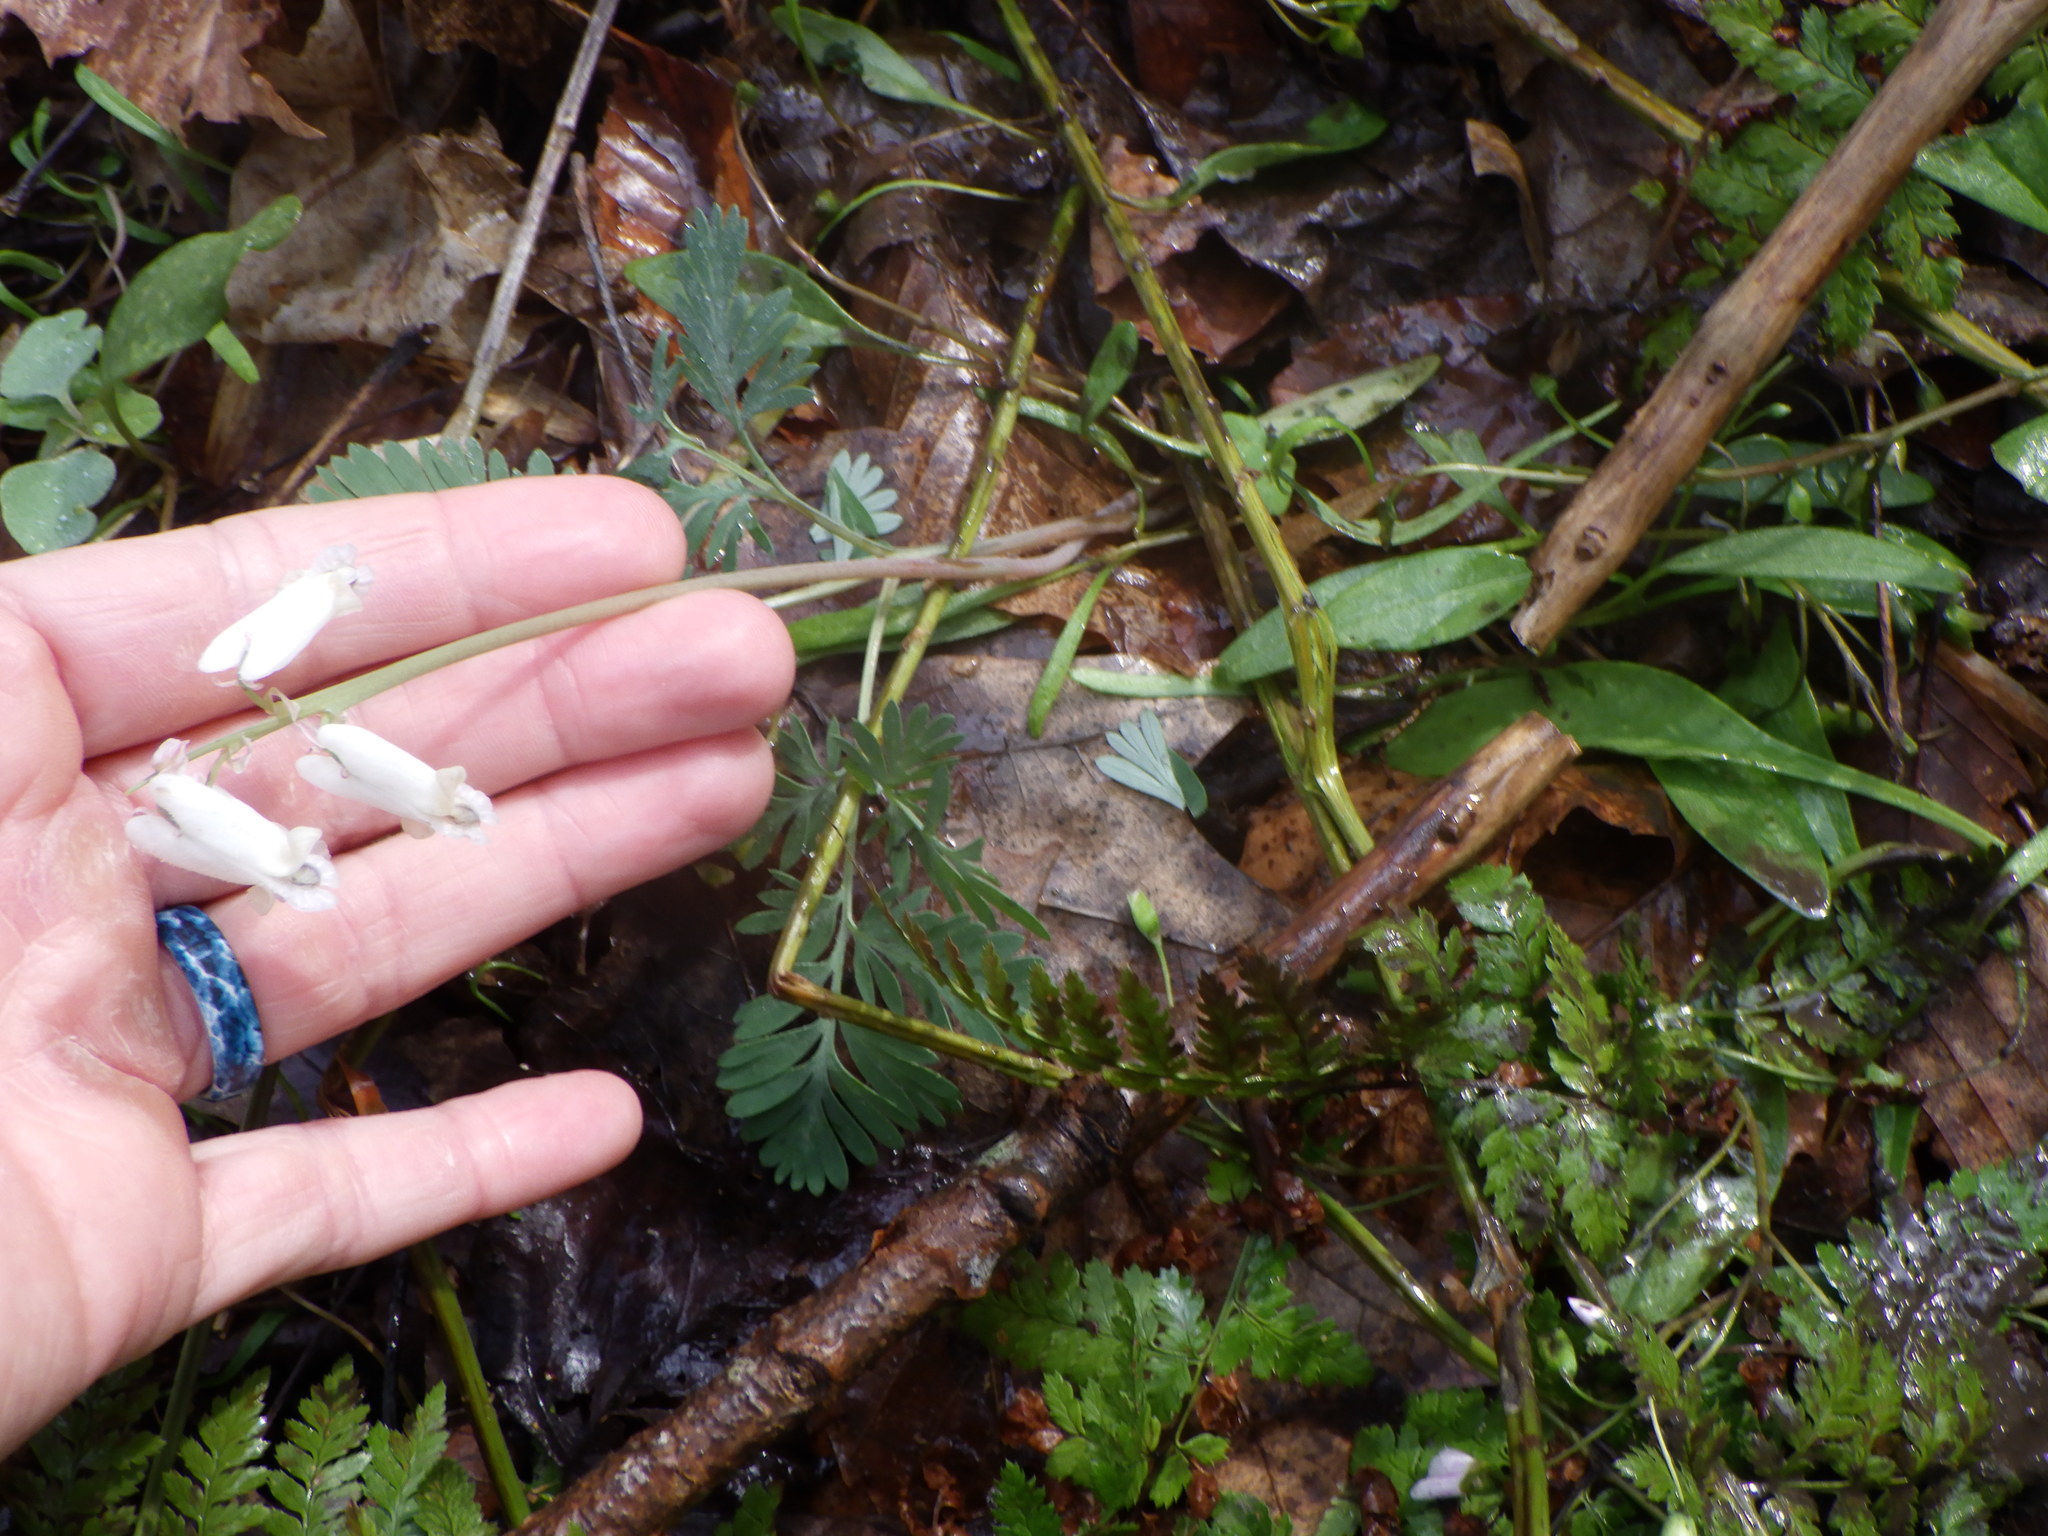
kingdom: Plantae
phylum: Tracheophyta
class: Magnoliopsida
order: Ranunculales
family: Papaveraceae
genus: Dicentra
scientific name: Dicentra canadensis
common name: Squirrel-corn
